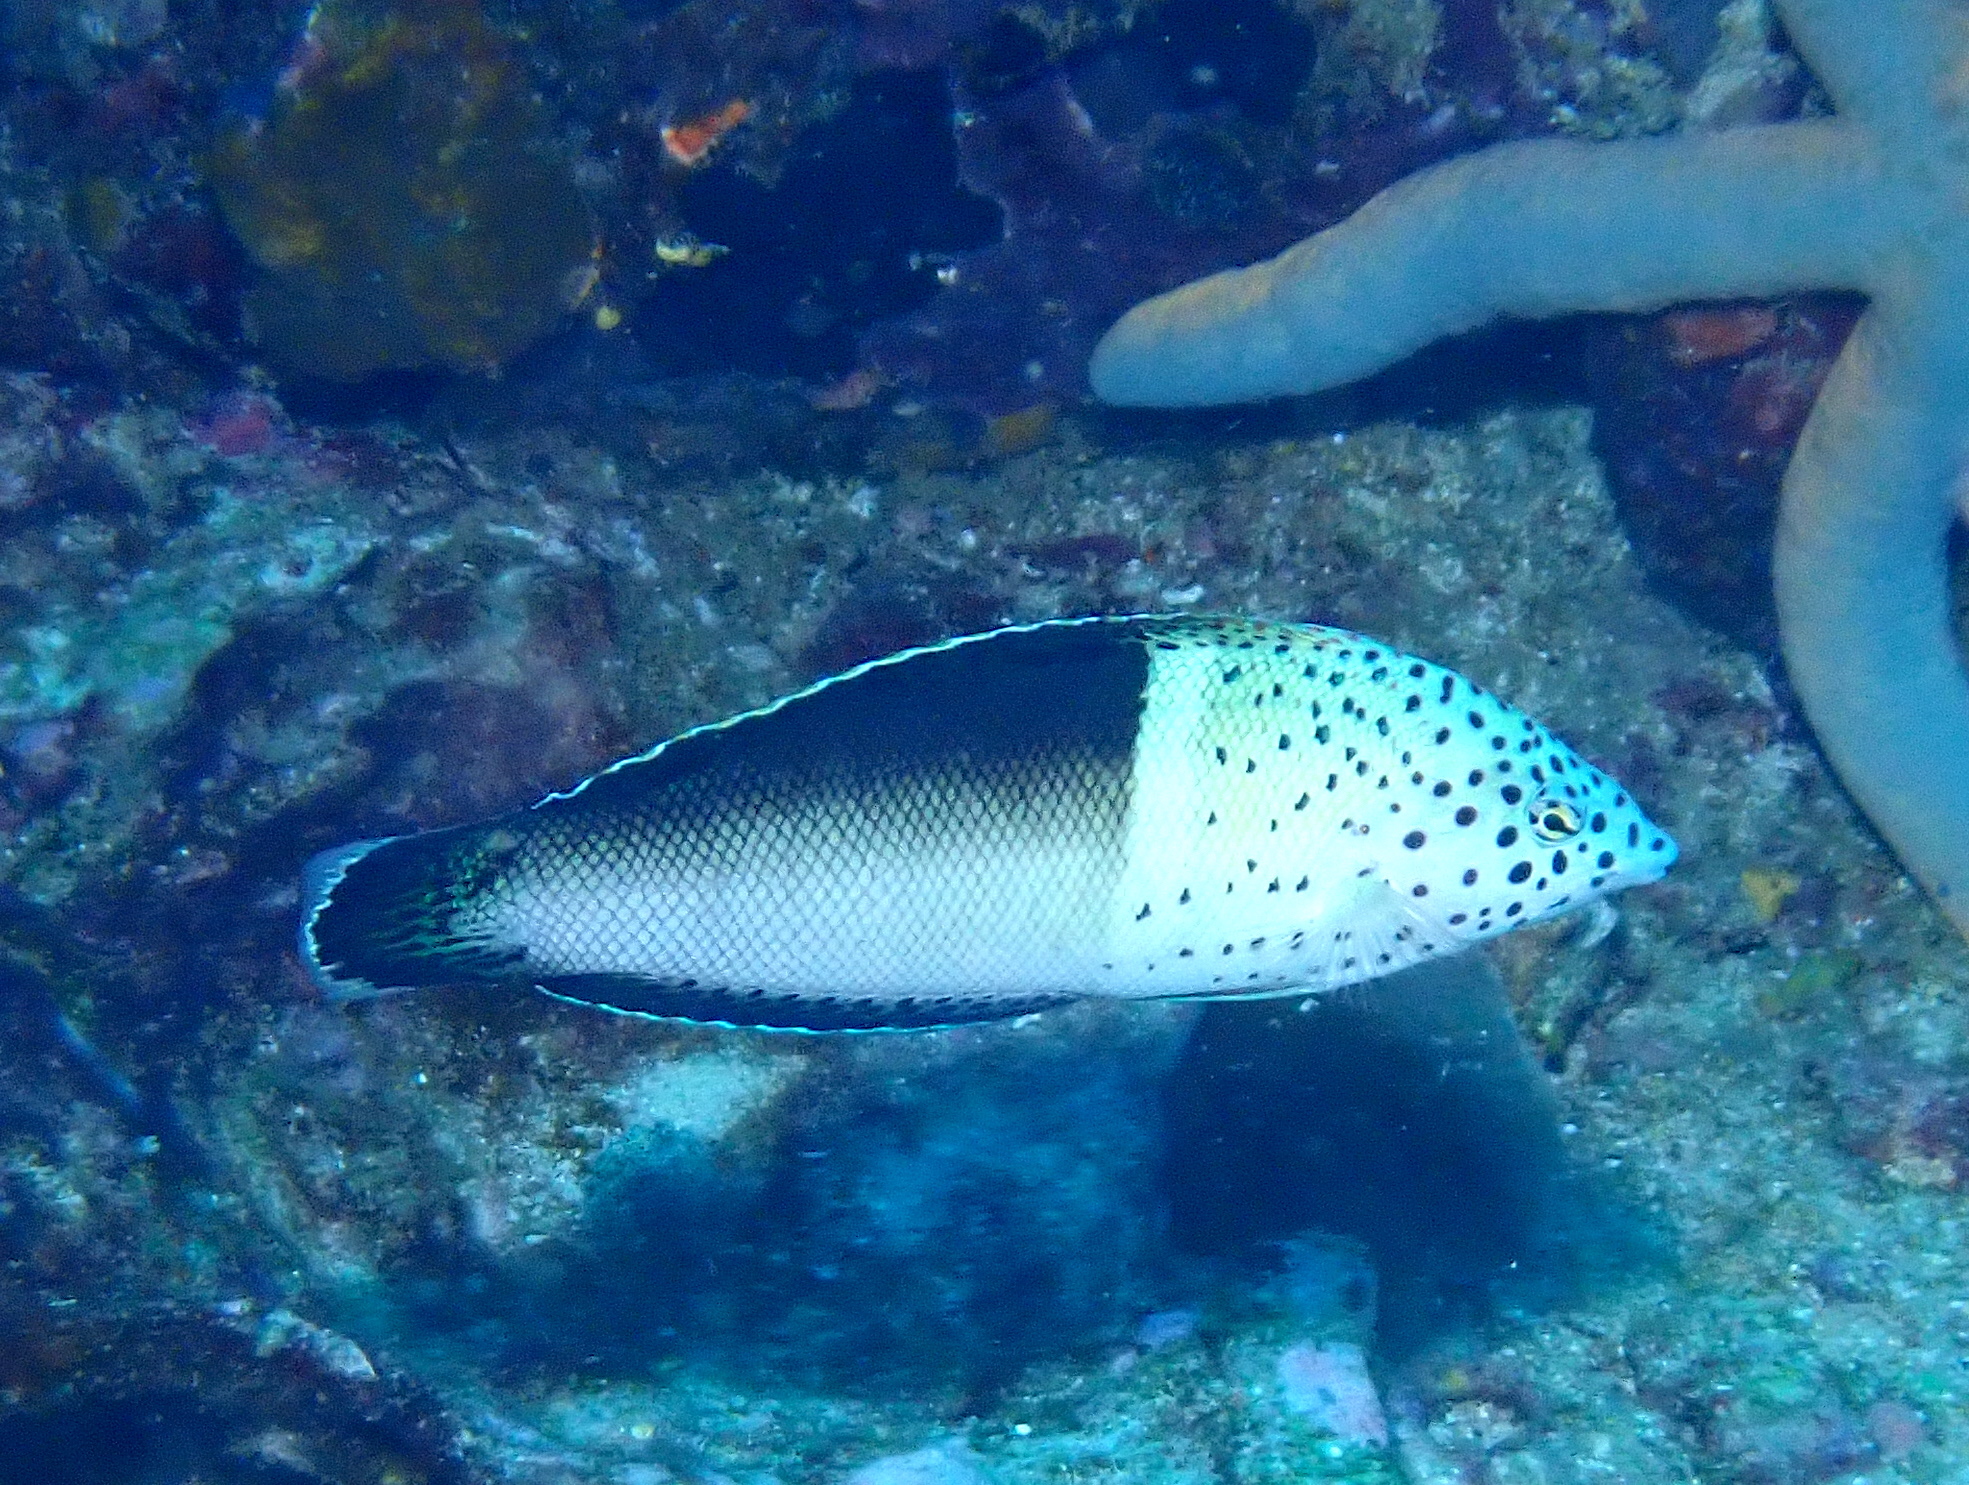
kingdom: Animalia
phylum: Chordata
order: Perciformes
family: Labridae
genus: Coris
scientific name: Coris aygula
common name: Clown coris
